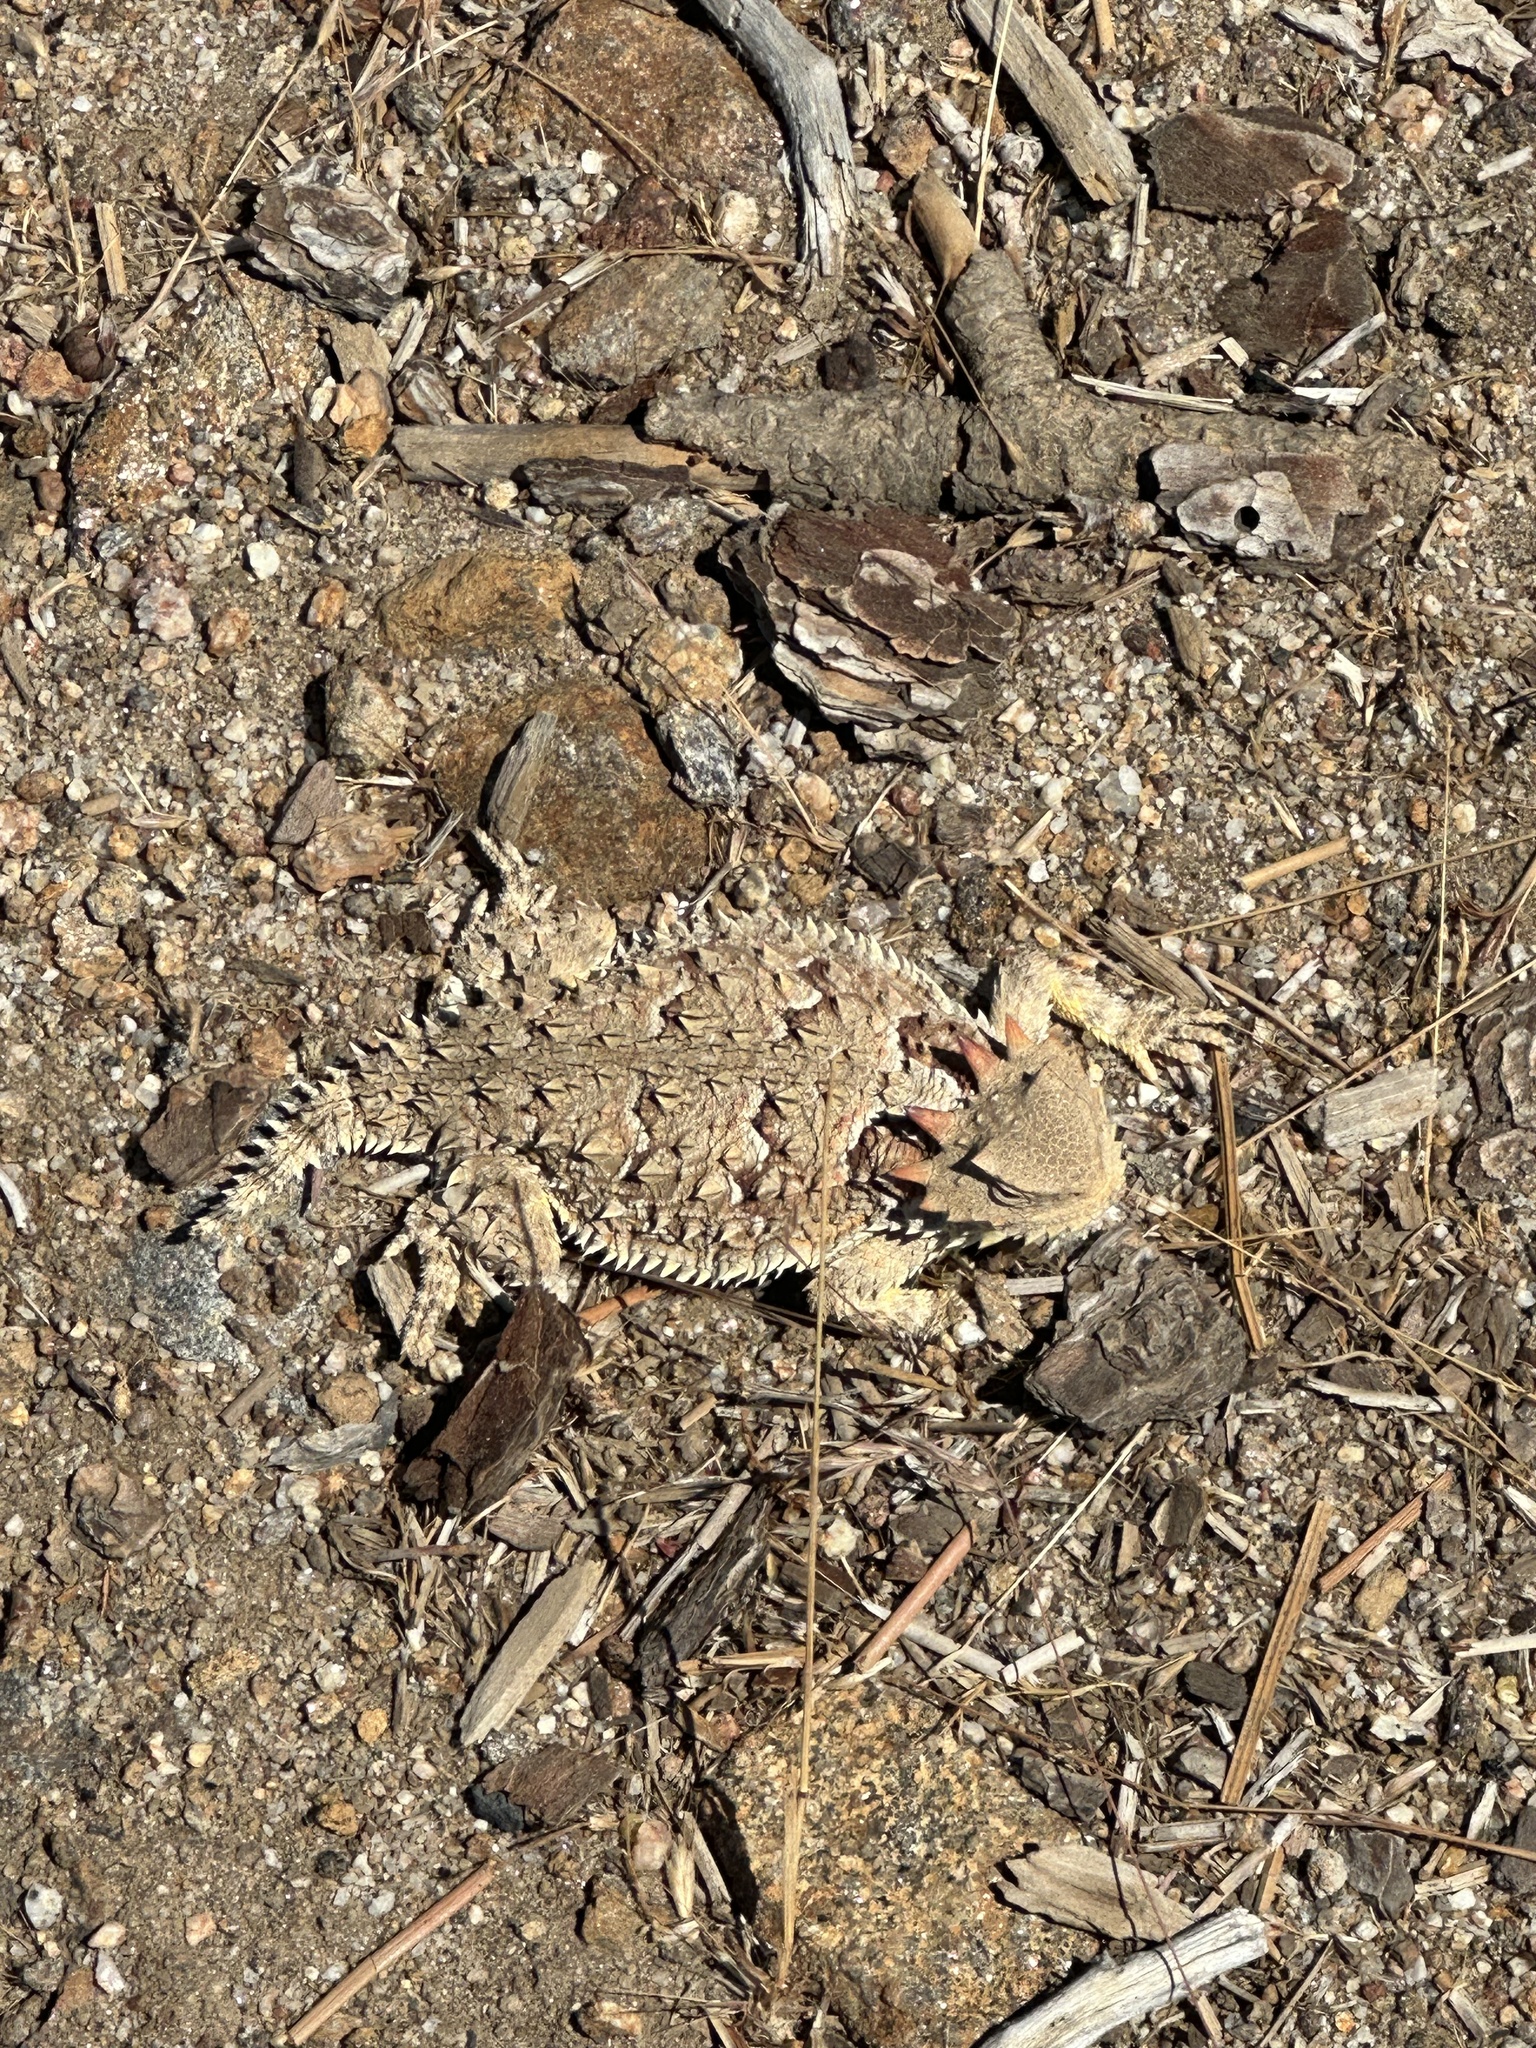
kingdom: Animalia
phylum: Chordata
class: Squamata
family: Phrynosomatidae
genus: Phrynosoma
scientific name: Phrynosoma blainvillii
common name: San diego horned lizard
